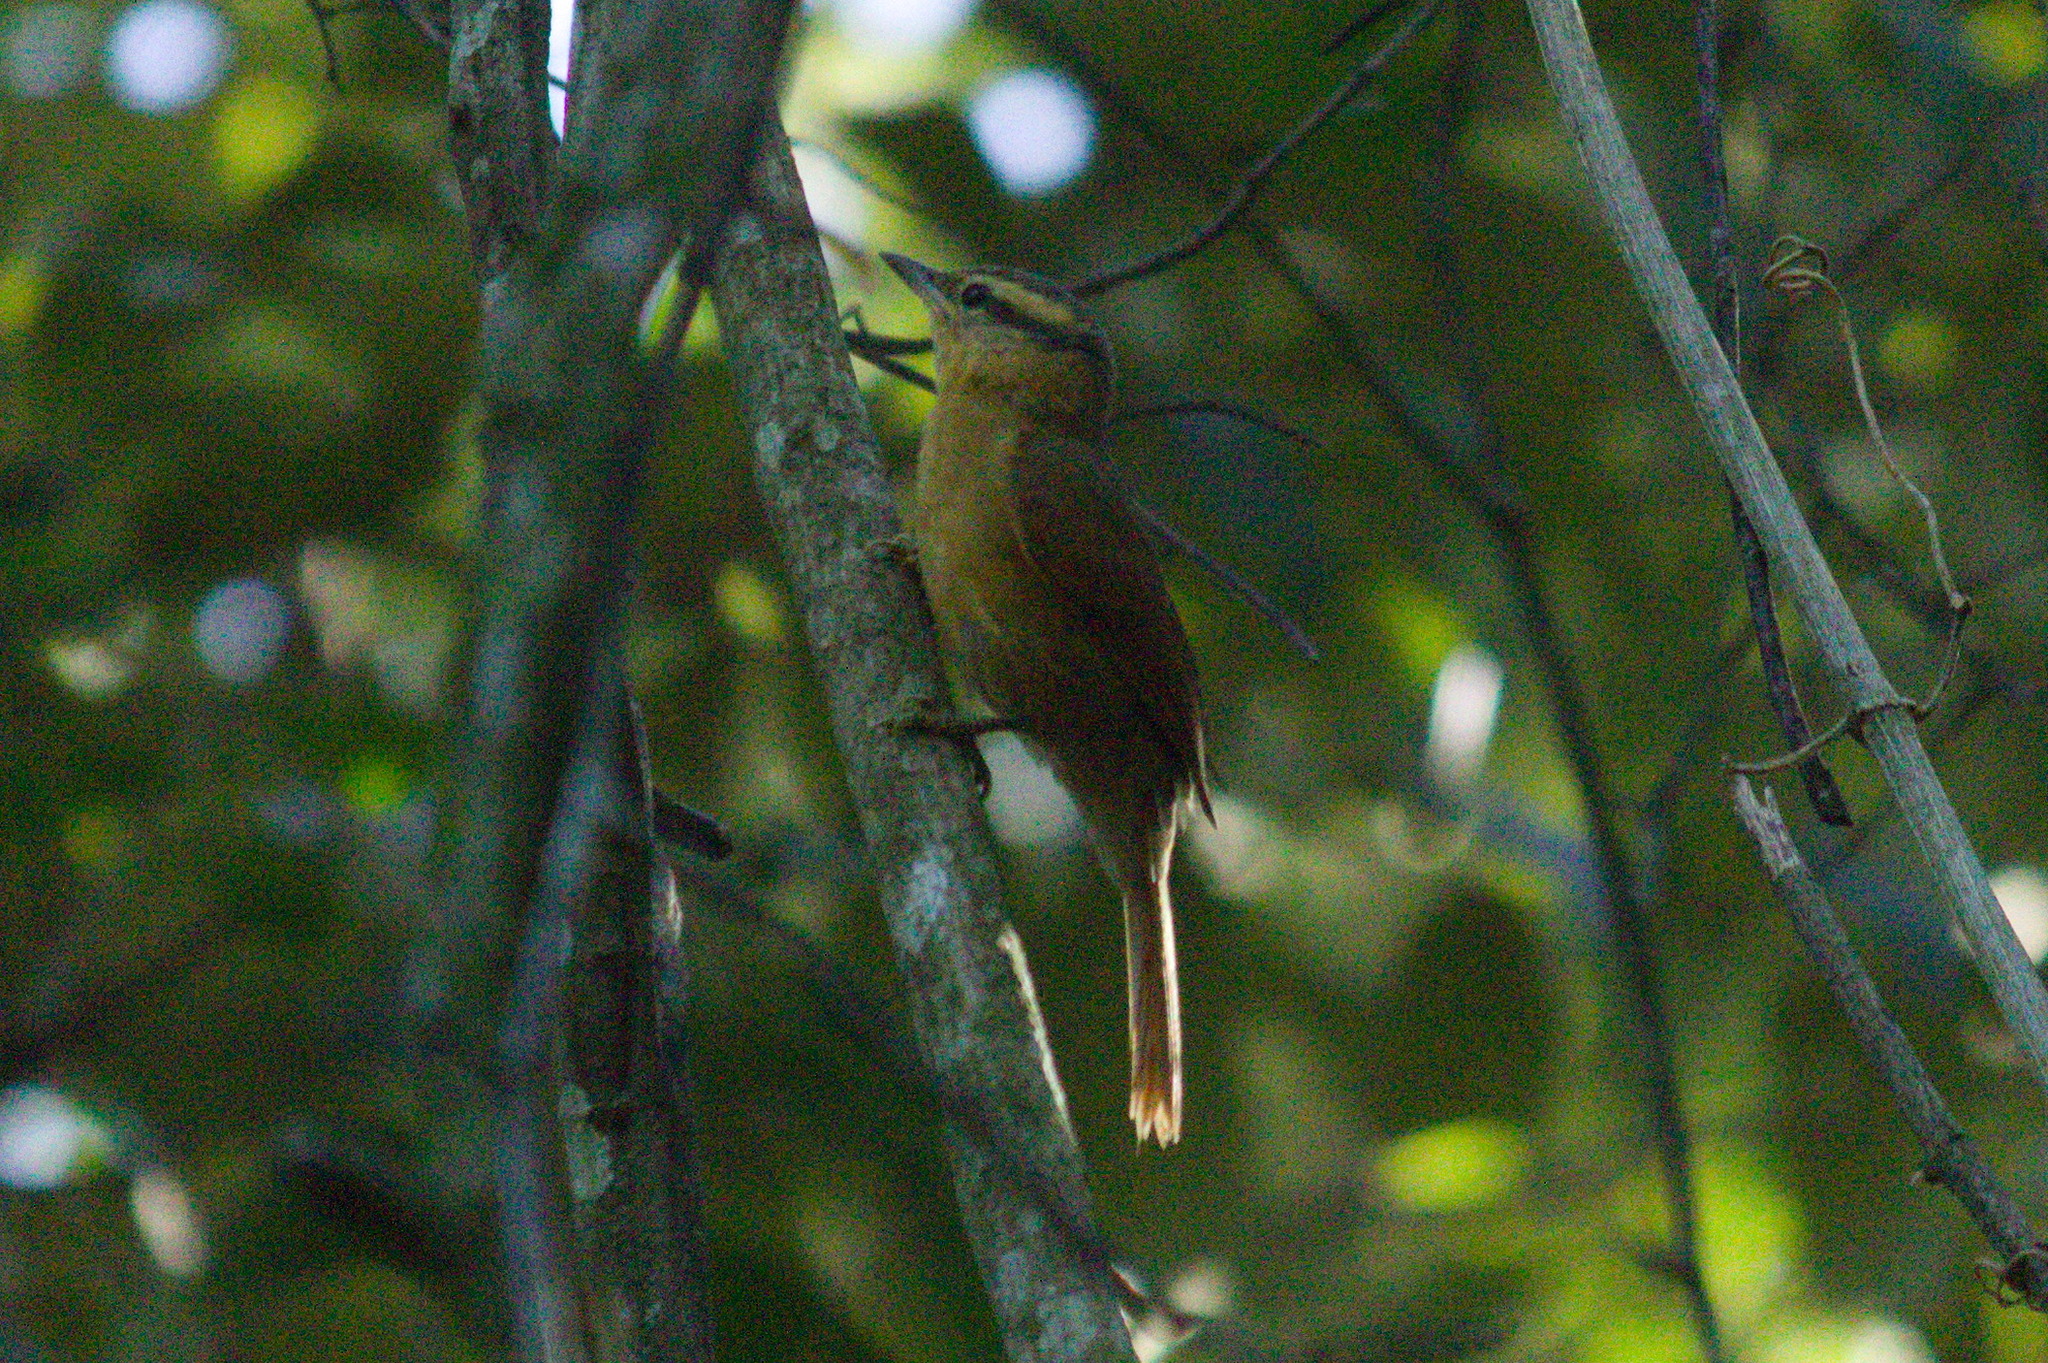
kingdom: Animalia
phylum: Chordata
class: Aves
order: Passeriformes
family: Furnariidae
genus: Philydor
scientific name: Philydor lichtensteini
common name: Ochre-breasted foliage-gleaner
